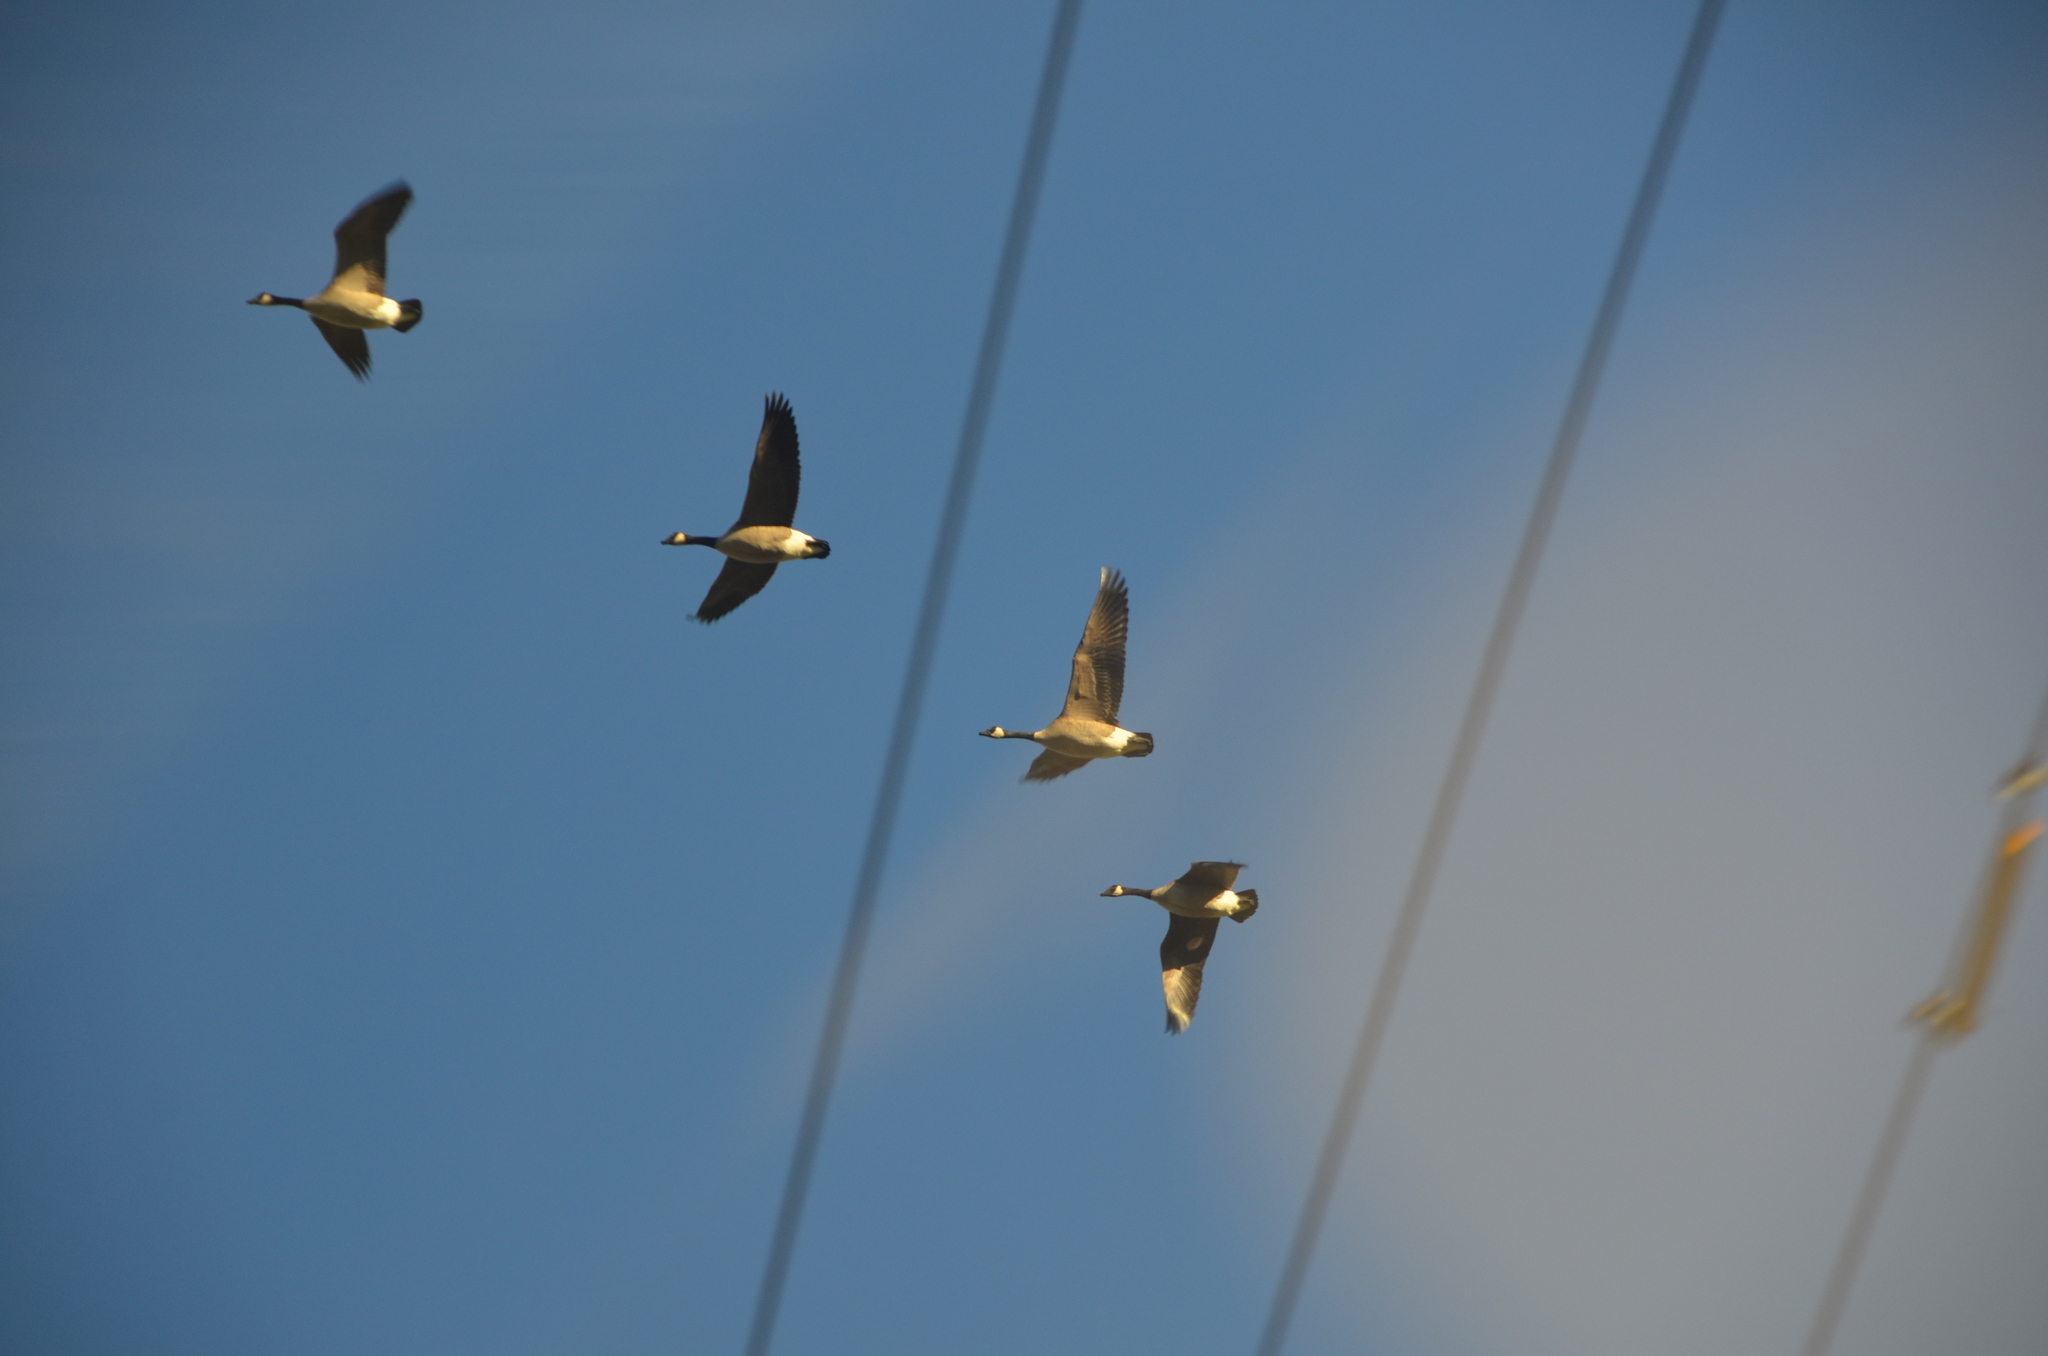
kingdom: Animalia
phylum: Chordata
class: Aves
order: Anseriformes
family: Anatidae
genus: Branta
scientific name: Branta canadensis
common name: Canada goose
